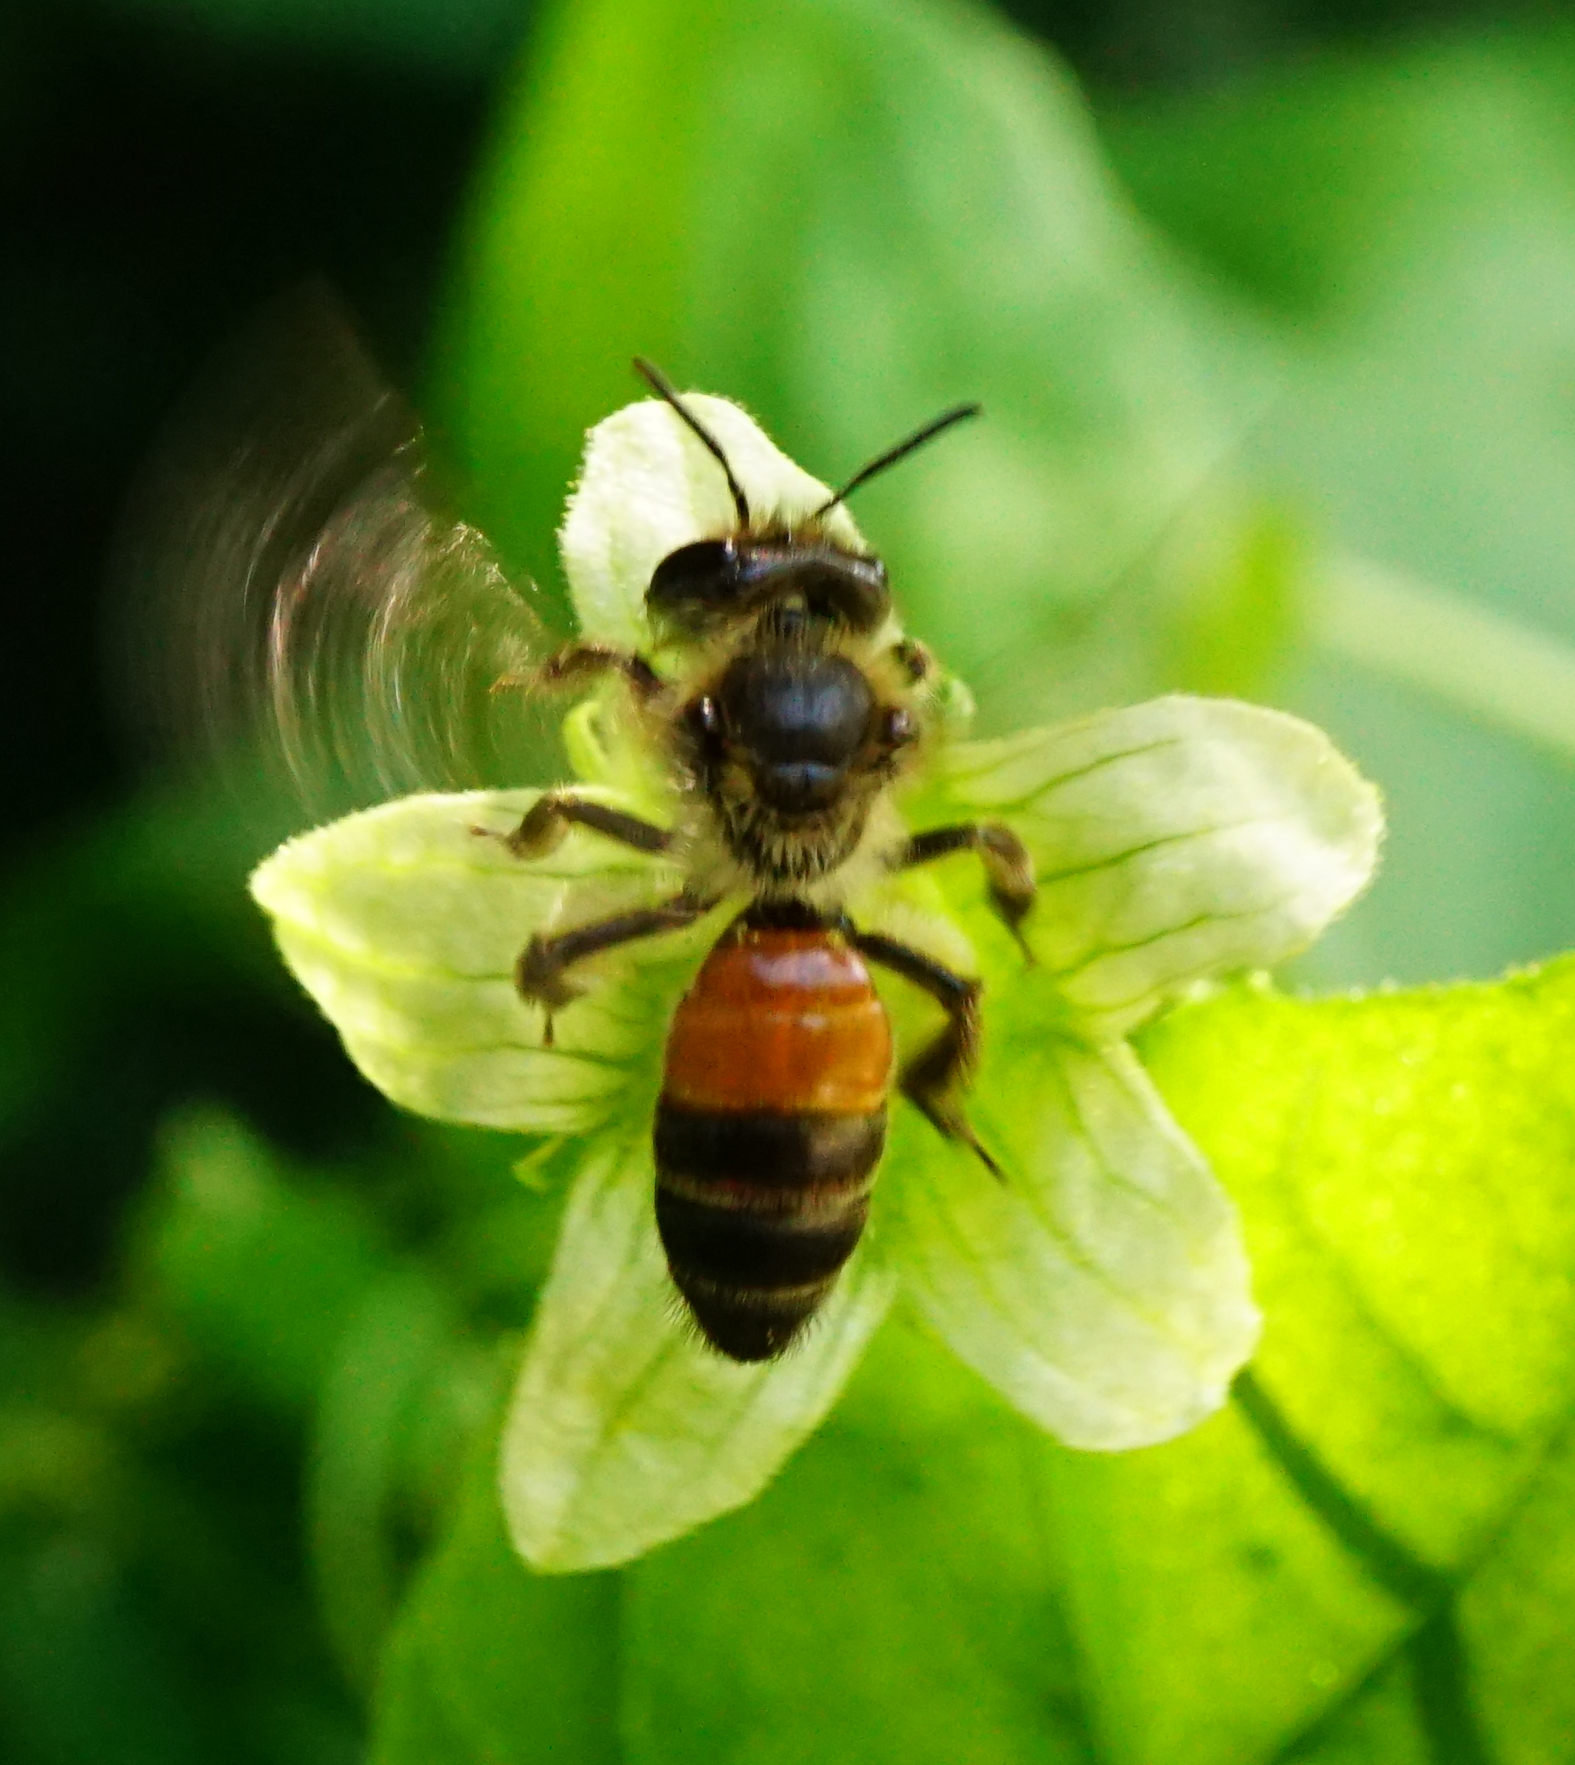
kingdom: Animalia
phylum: Arthropoda
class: Insecta
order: Hymenoptera
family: Andrenidae
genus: Andrena
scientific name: Andrena florea
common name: Bryony mining bee
